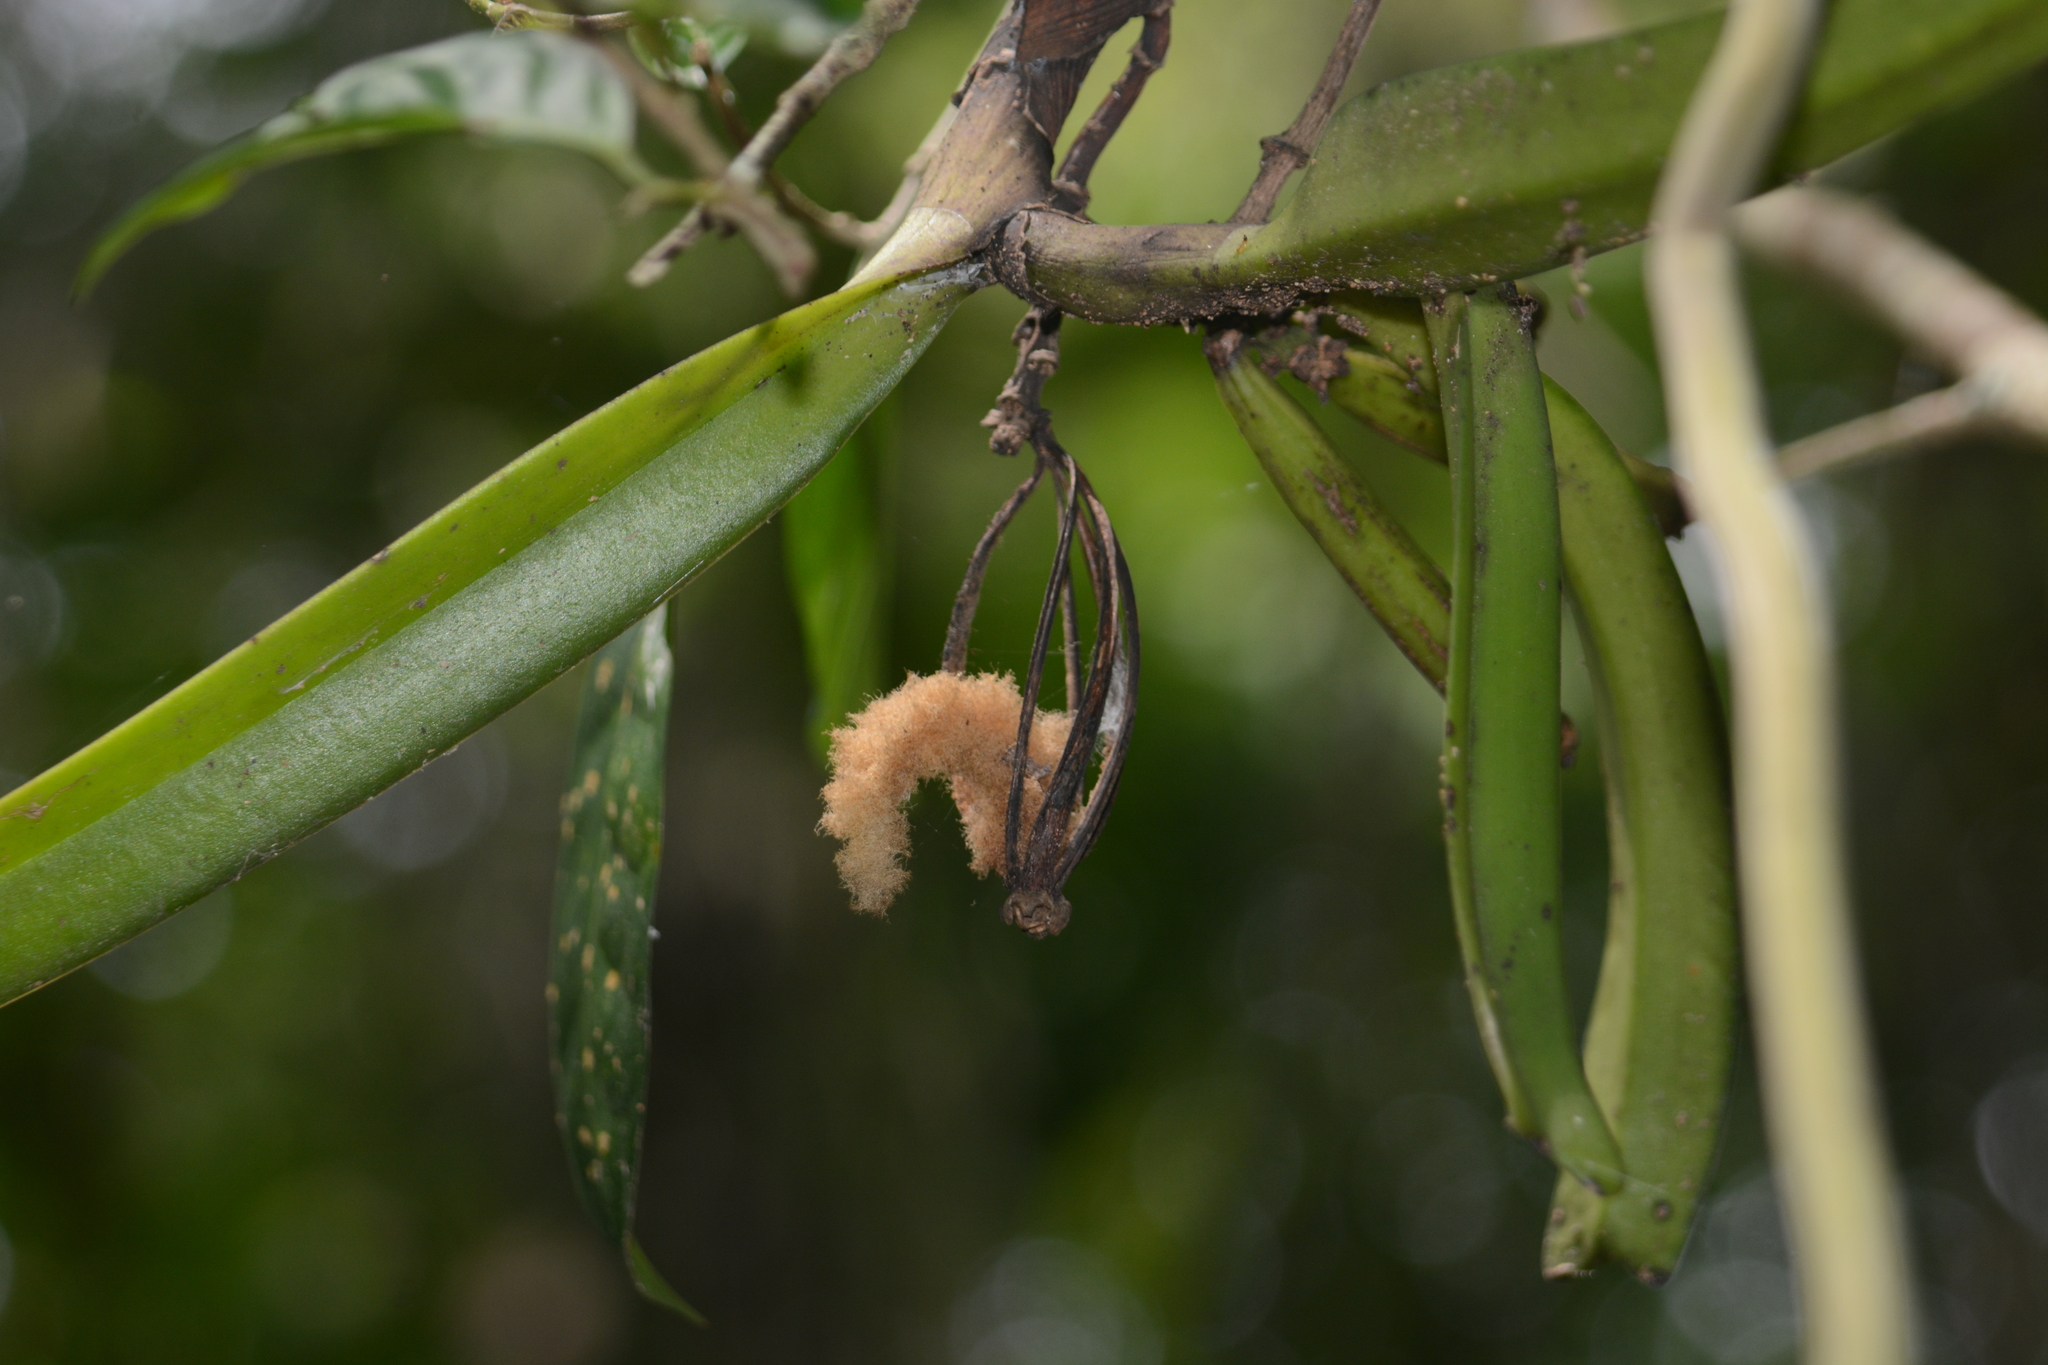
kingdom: Plantae
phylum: Tracheophyta
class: Liliopsida
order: Asparagales
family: Orchidaceae
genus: Acampe
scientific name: Acampe praemorsa
